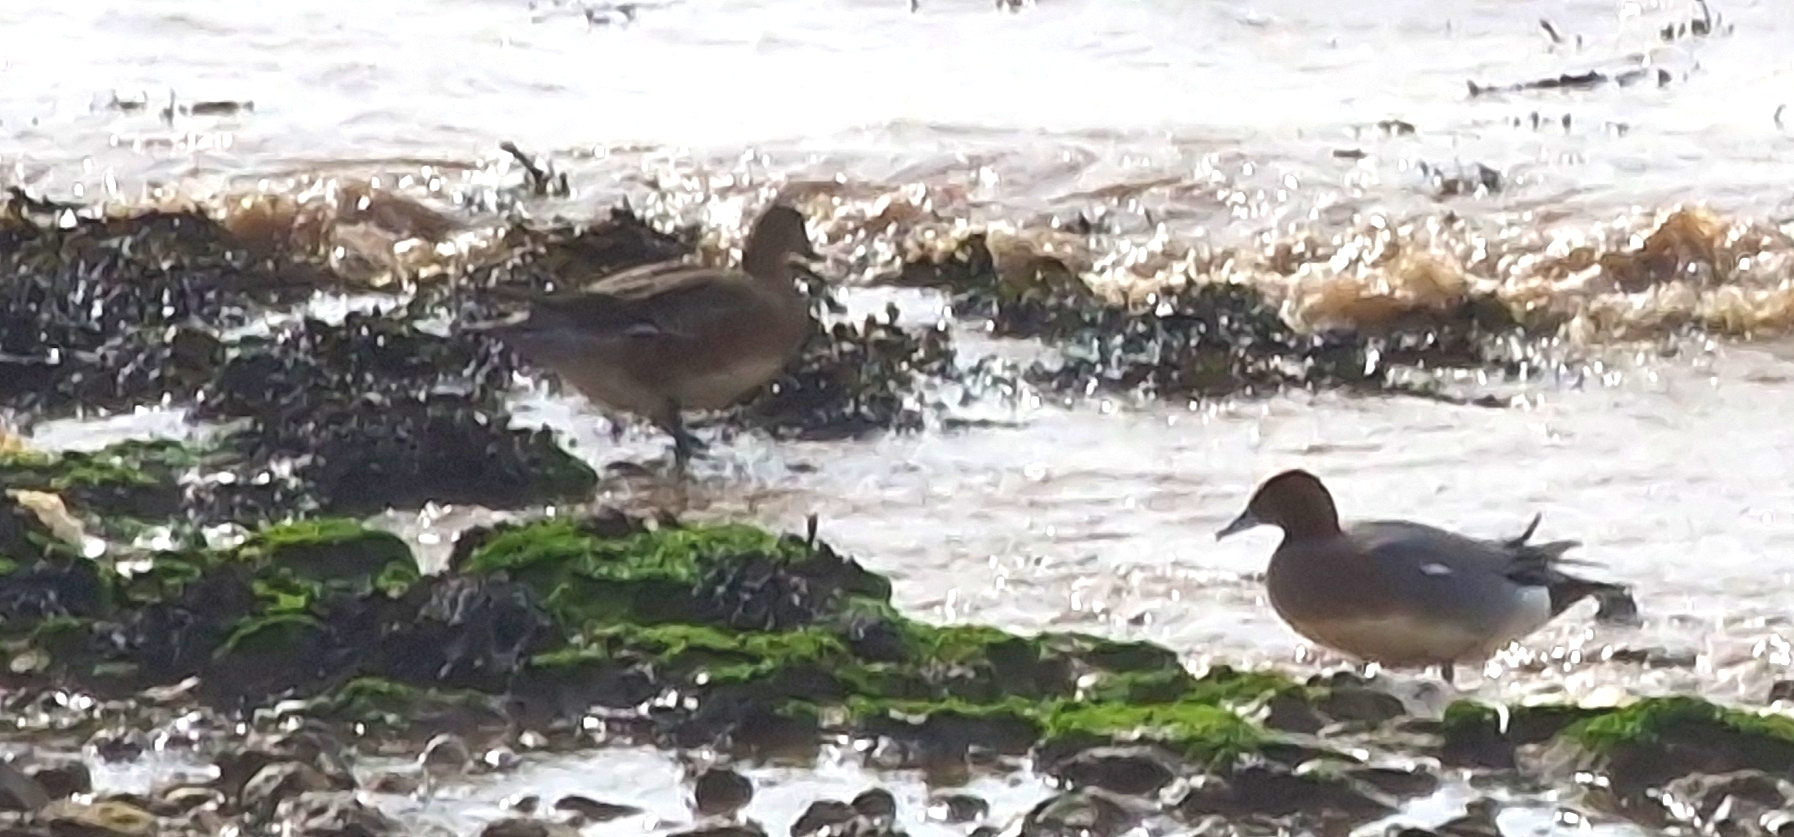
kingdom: Animalia
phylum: Chordata
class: Aves
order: Anseriformes
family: Anatidae
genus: Mareca
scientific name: Mareca penelope
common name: Eurasian wigeon
